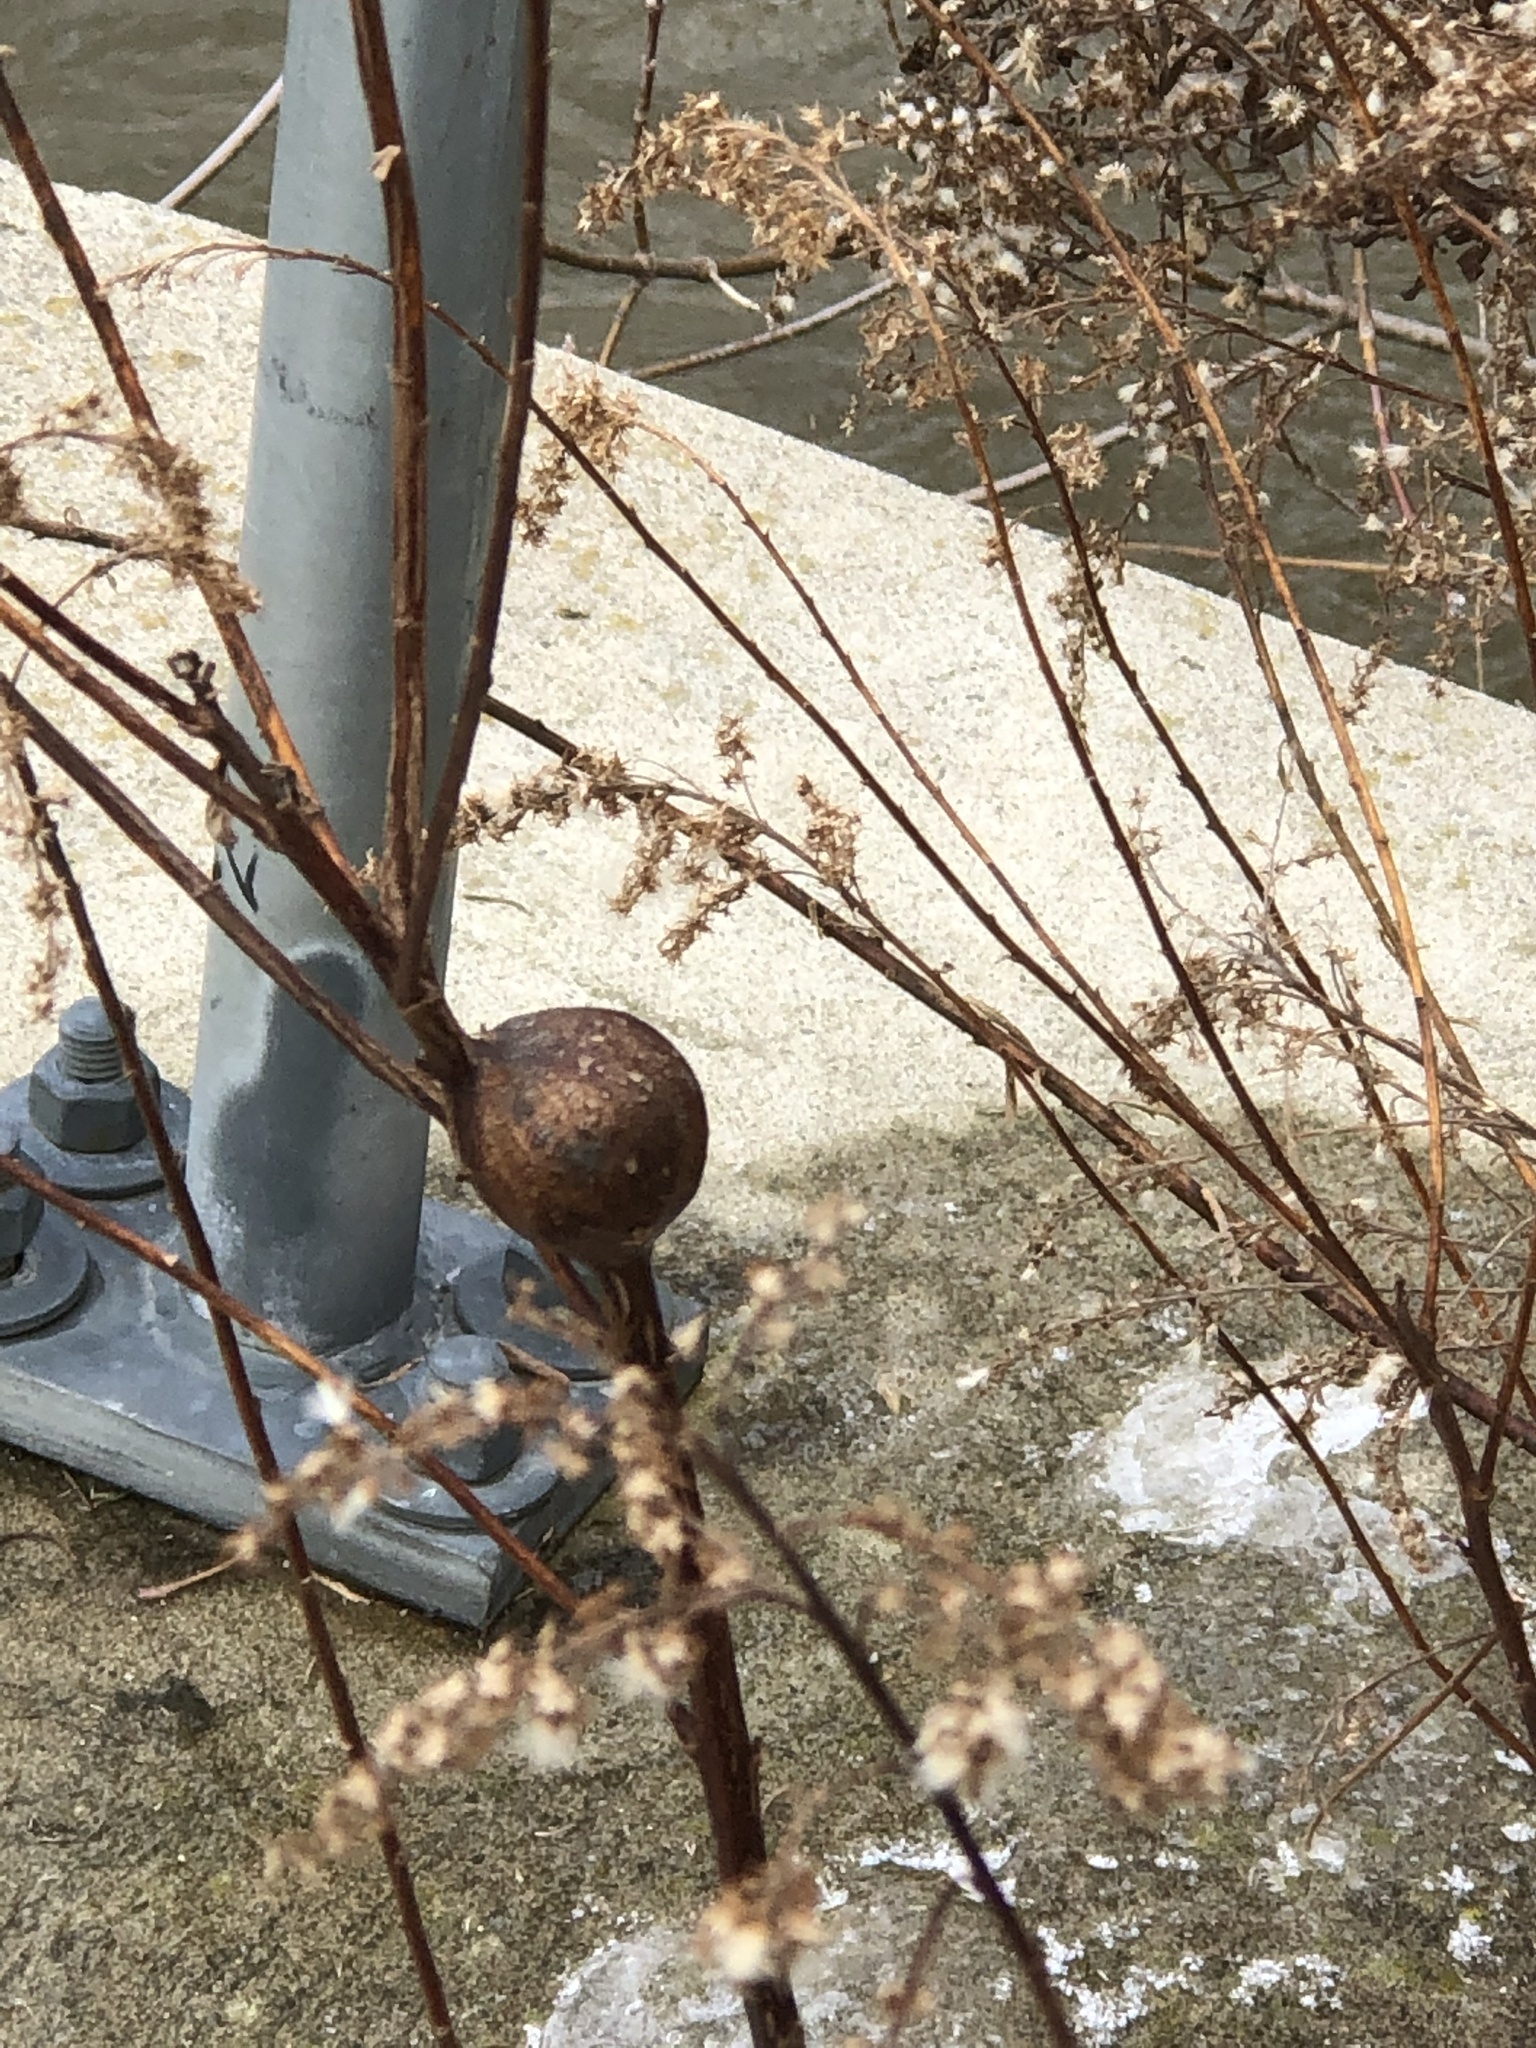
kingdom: Animalia
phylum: Arthropoda
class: Insecta
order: Diptera
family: Tephritidae
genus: Eurosta
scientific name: Eurosta solidaginis
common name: Goldenrod gall fly
